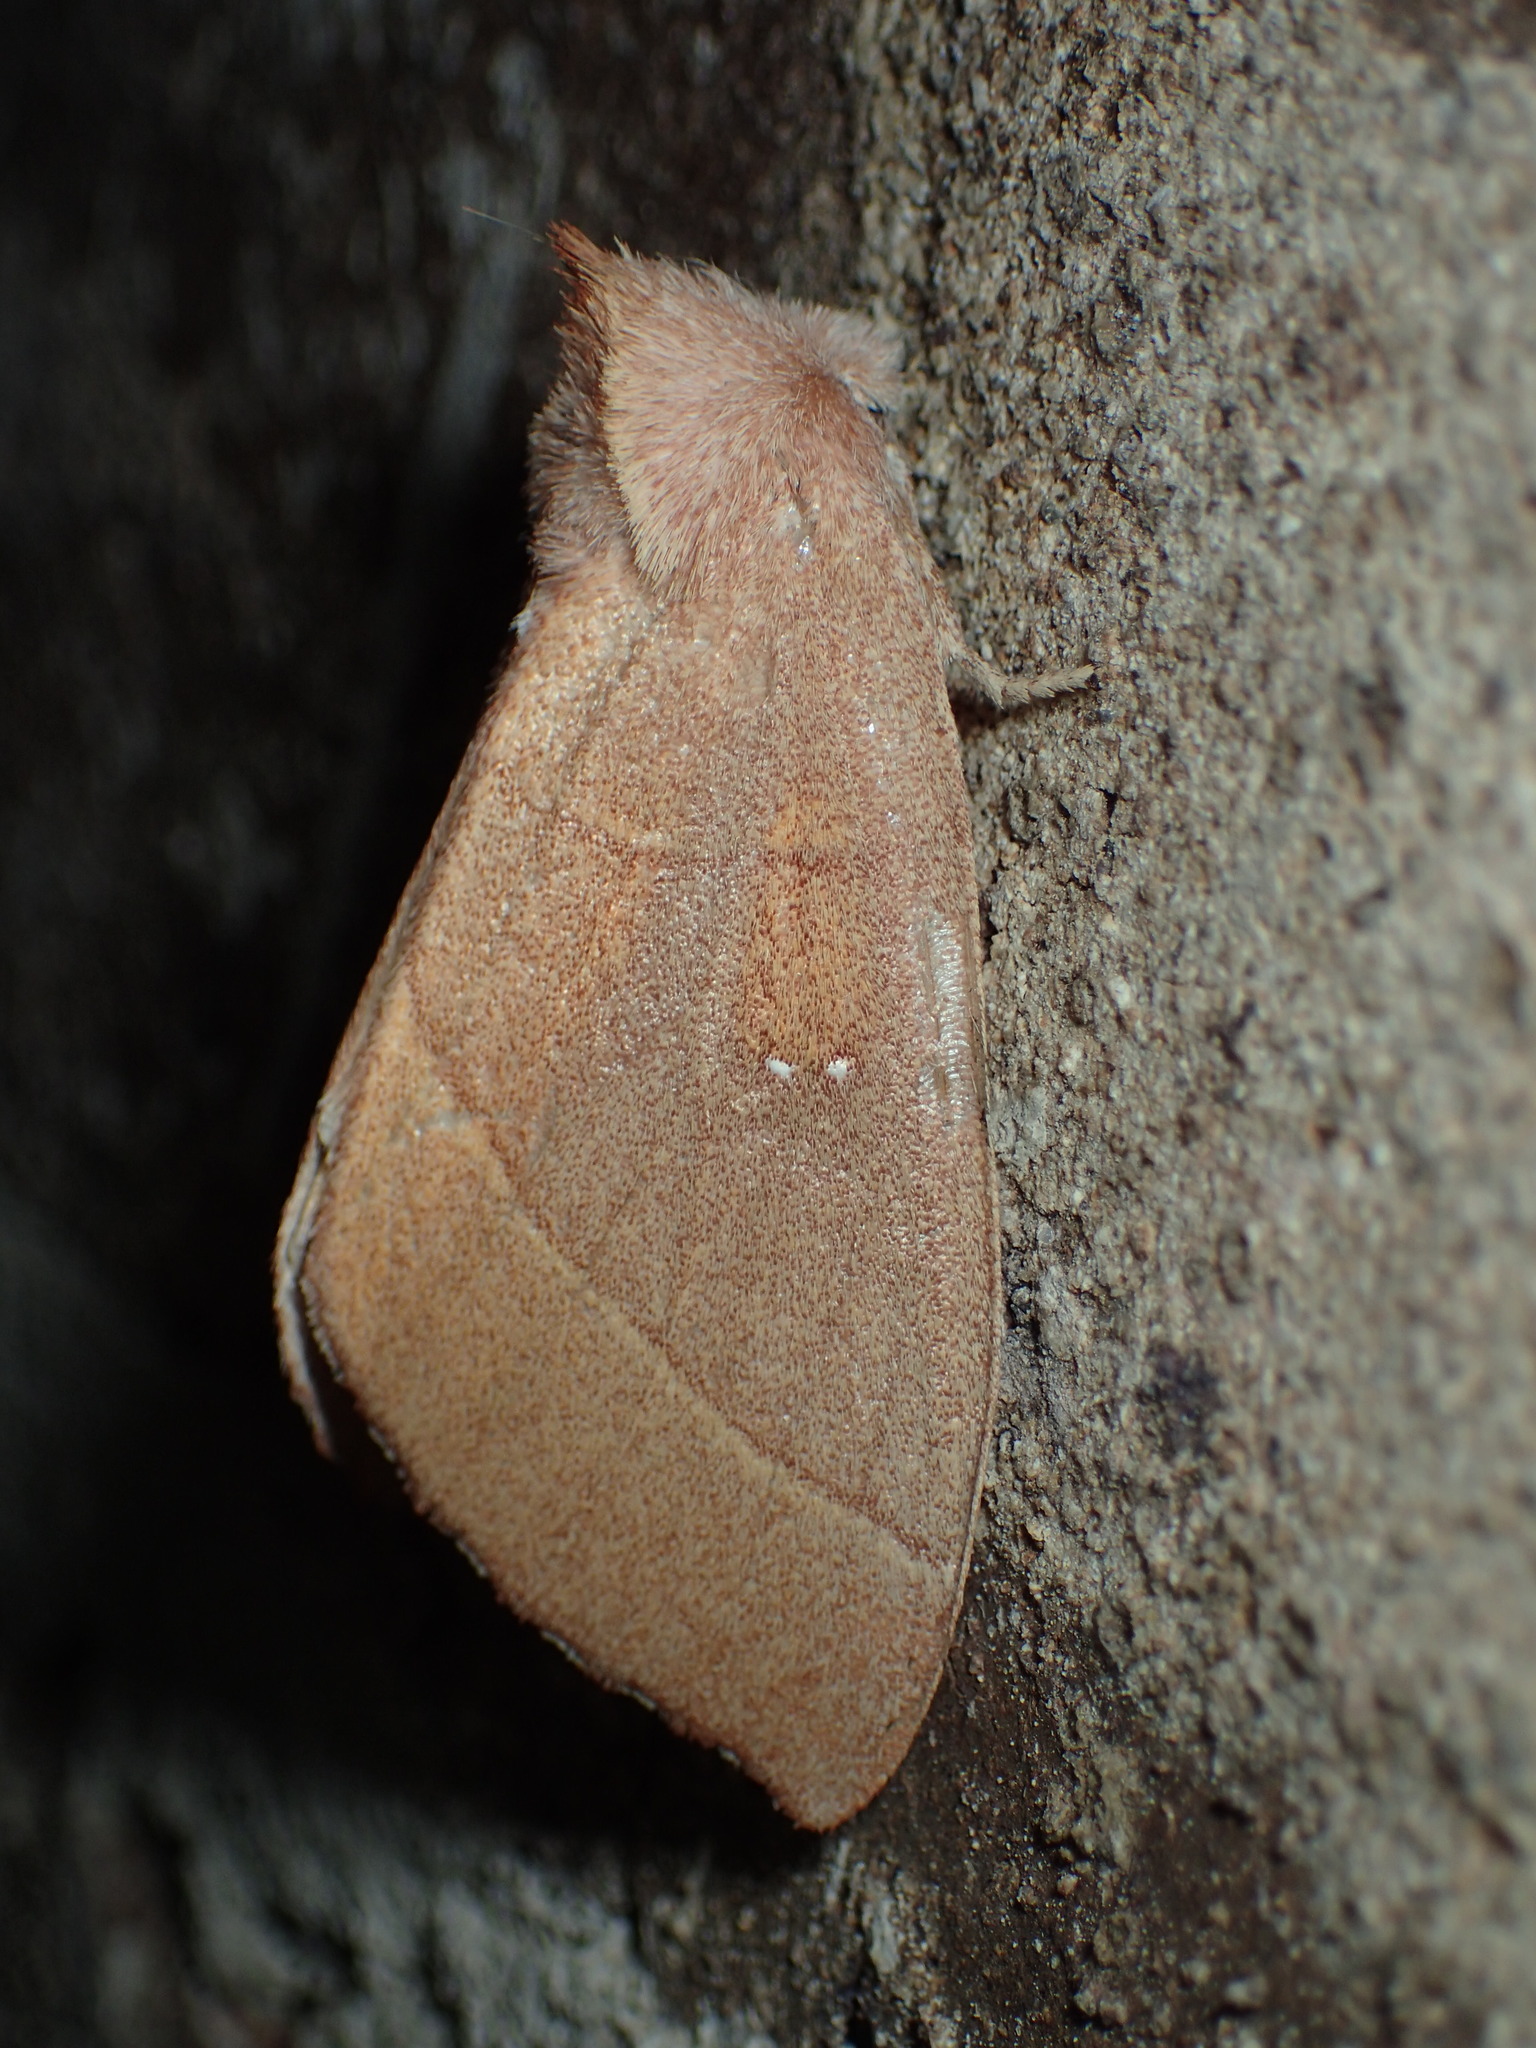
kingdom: Animalia
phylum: Arthropoda
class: Insecta
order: Lepidoptera
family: Notodontidae
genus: Nadata
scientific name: Nadata gibbosa
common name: White-dotted prominent
